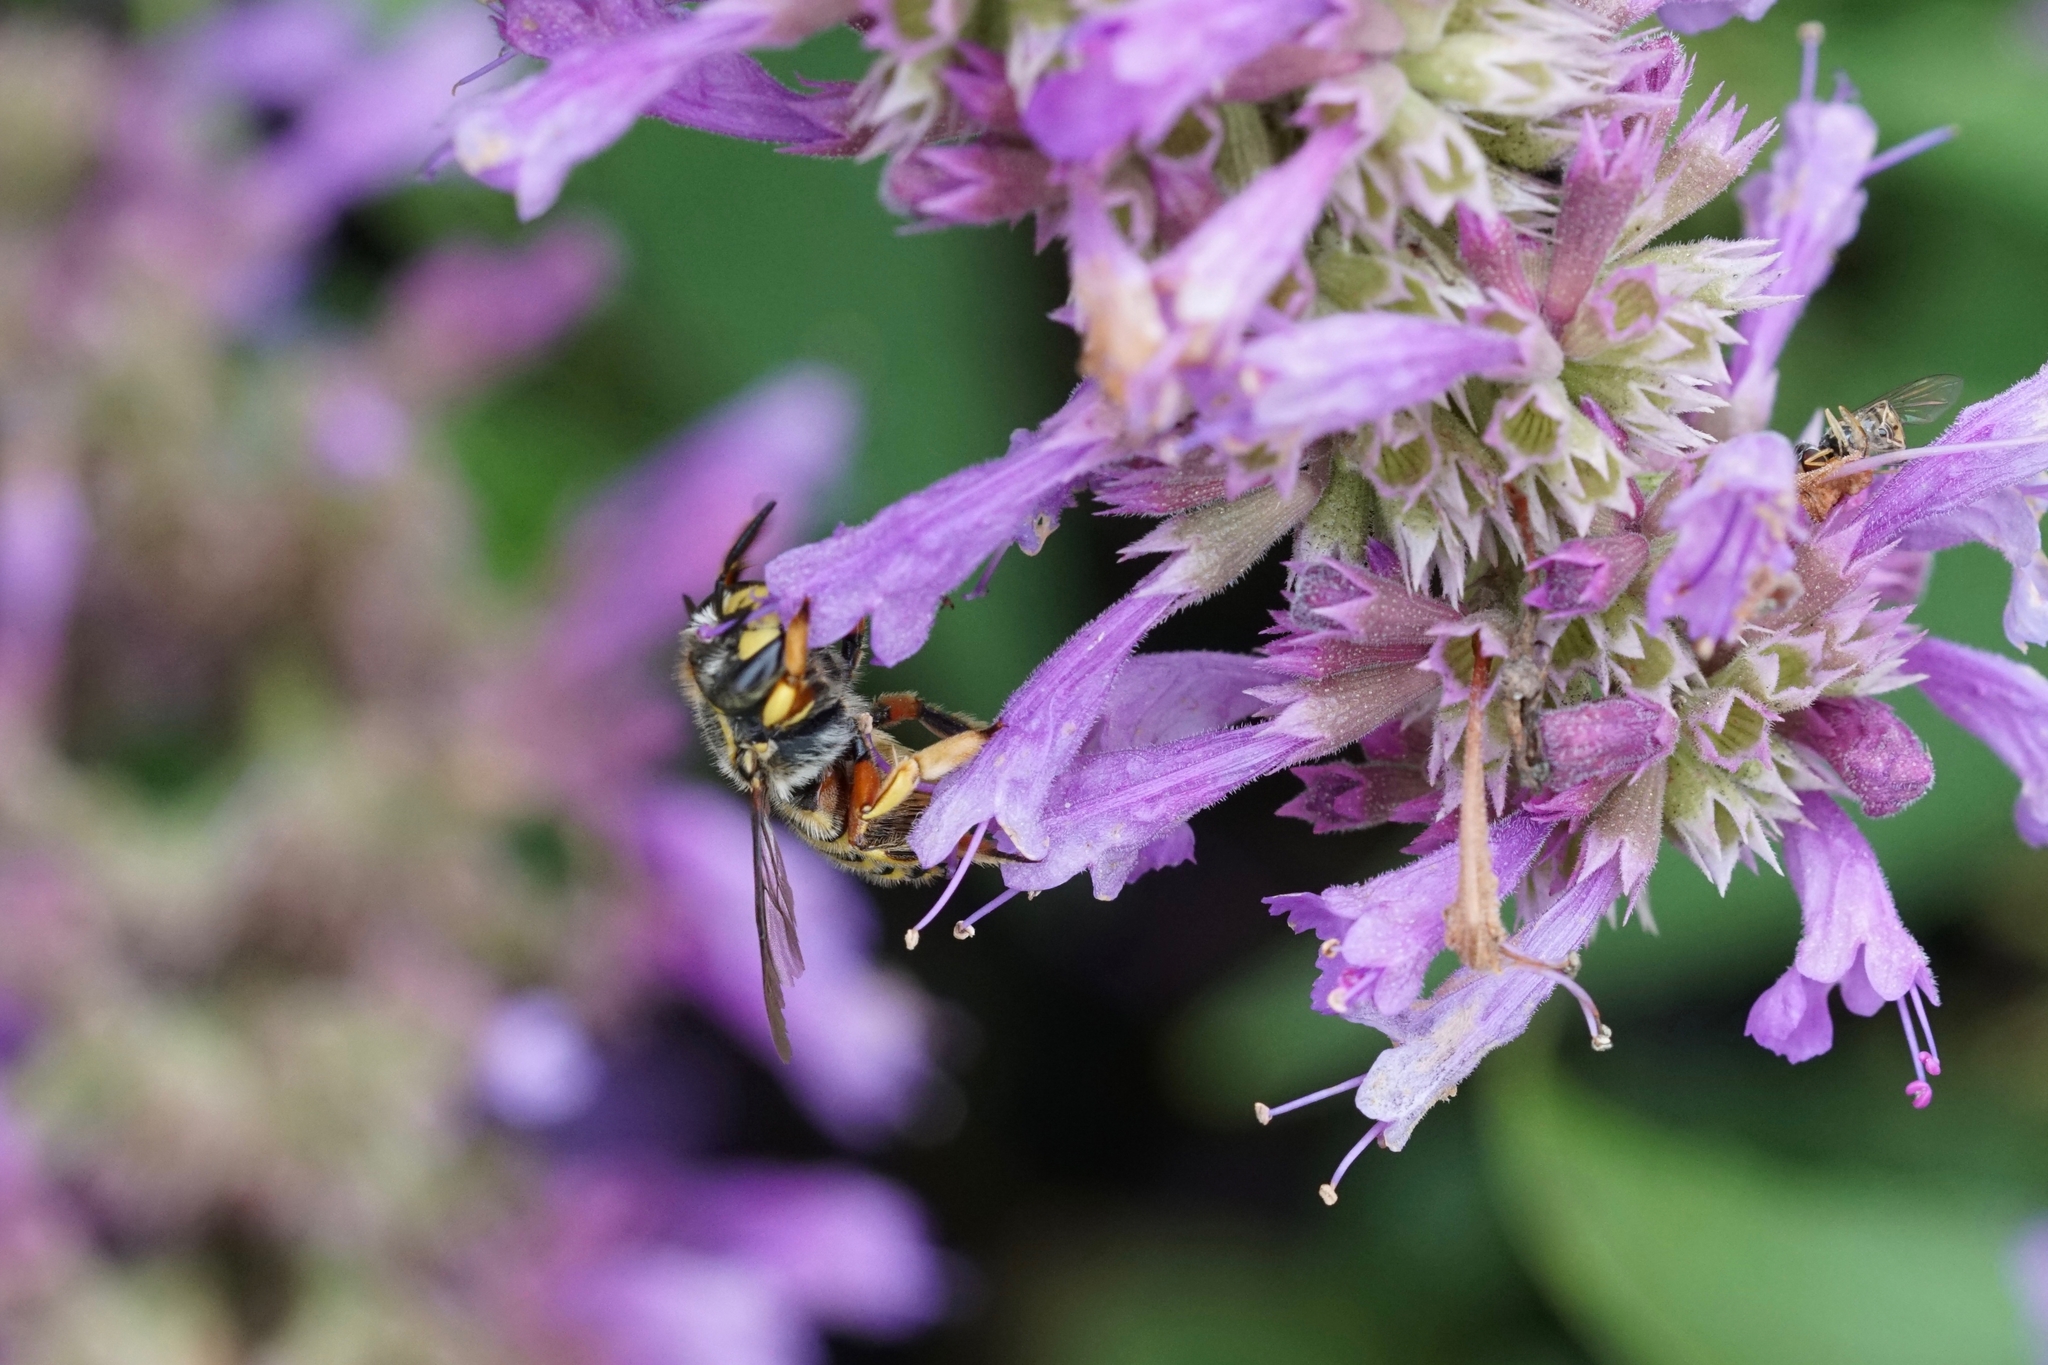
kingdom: Animalia
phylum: Arthropoda
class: Insecta
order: Hymenoptera
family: Megachilidae
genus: Anthidium
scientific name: Anthidium manicatum
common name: Wool carder bee
